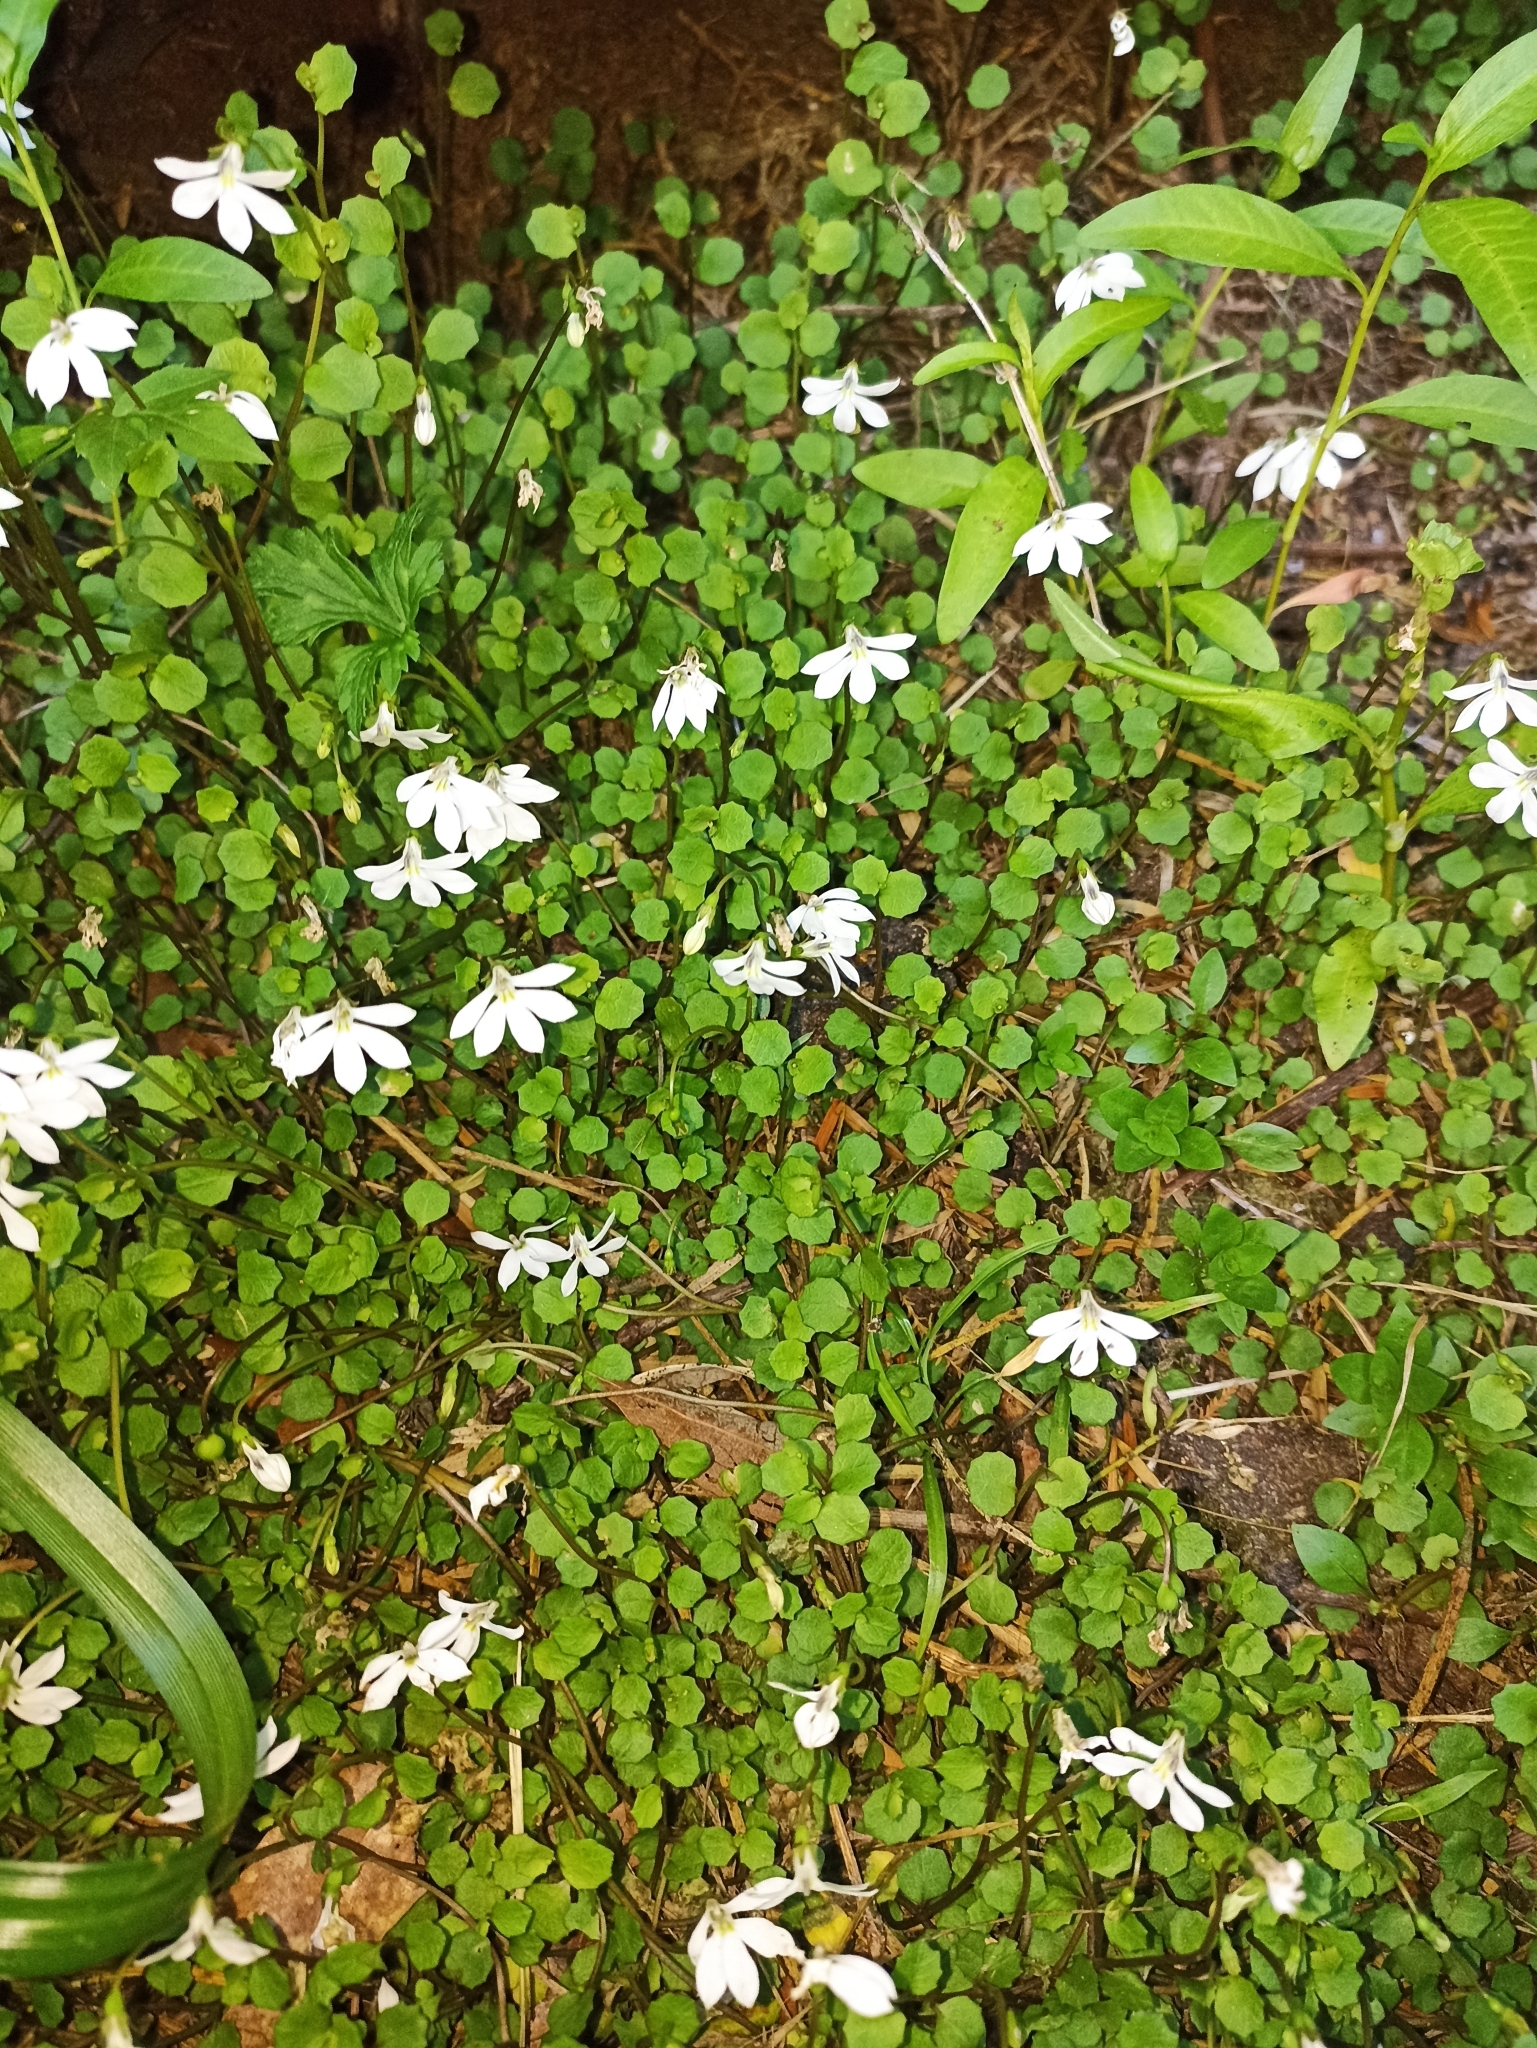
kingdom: Plantae
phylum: Tracheophyta
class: Magnoliopsida
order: Asterales
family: Campanulaceae
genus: Lobelia
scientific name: Lobelia angulata
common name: Lawn lobelia
